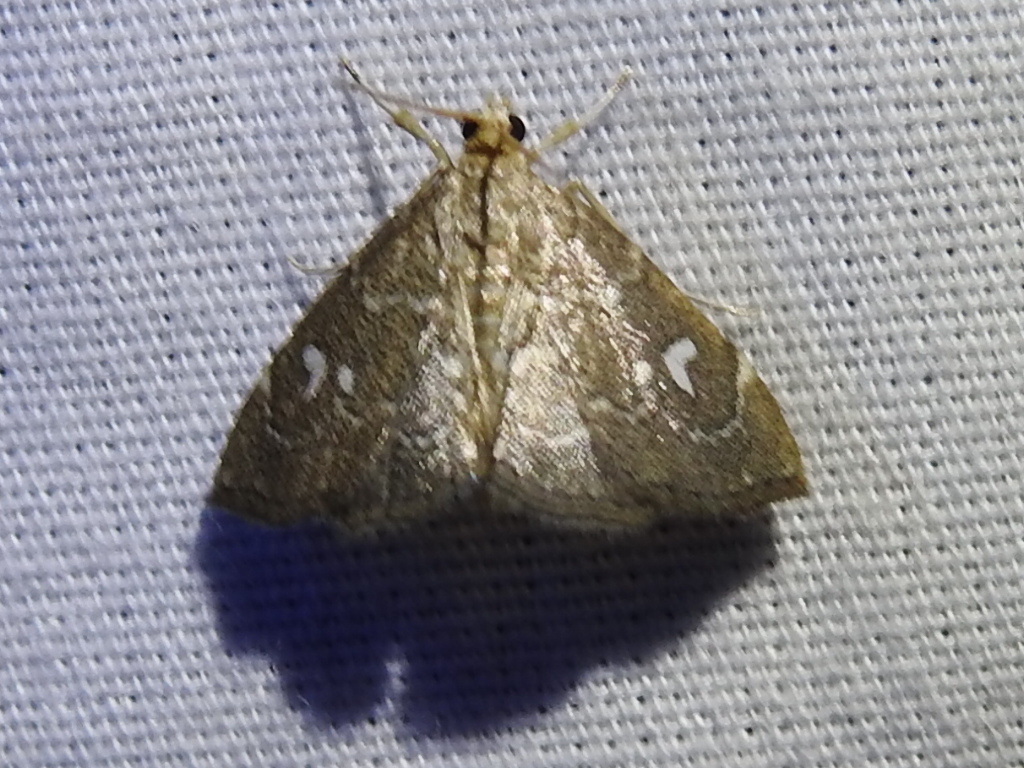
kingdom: Animalia
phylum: Arthropoda
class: Insecta
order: Lepidoptera
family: Crambidae
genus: Nephrogramma
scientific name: Nephrogramma reniculalis
